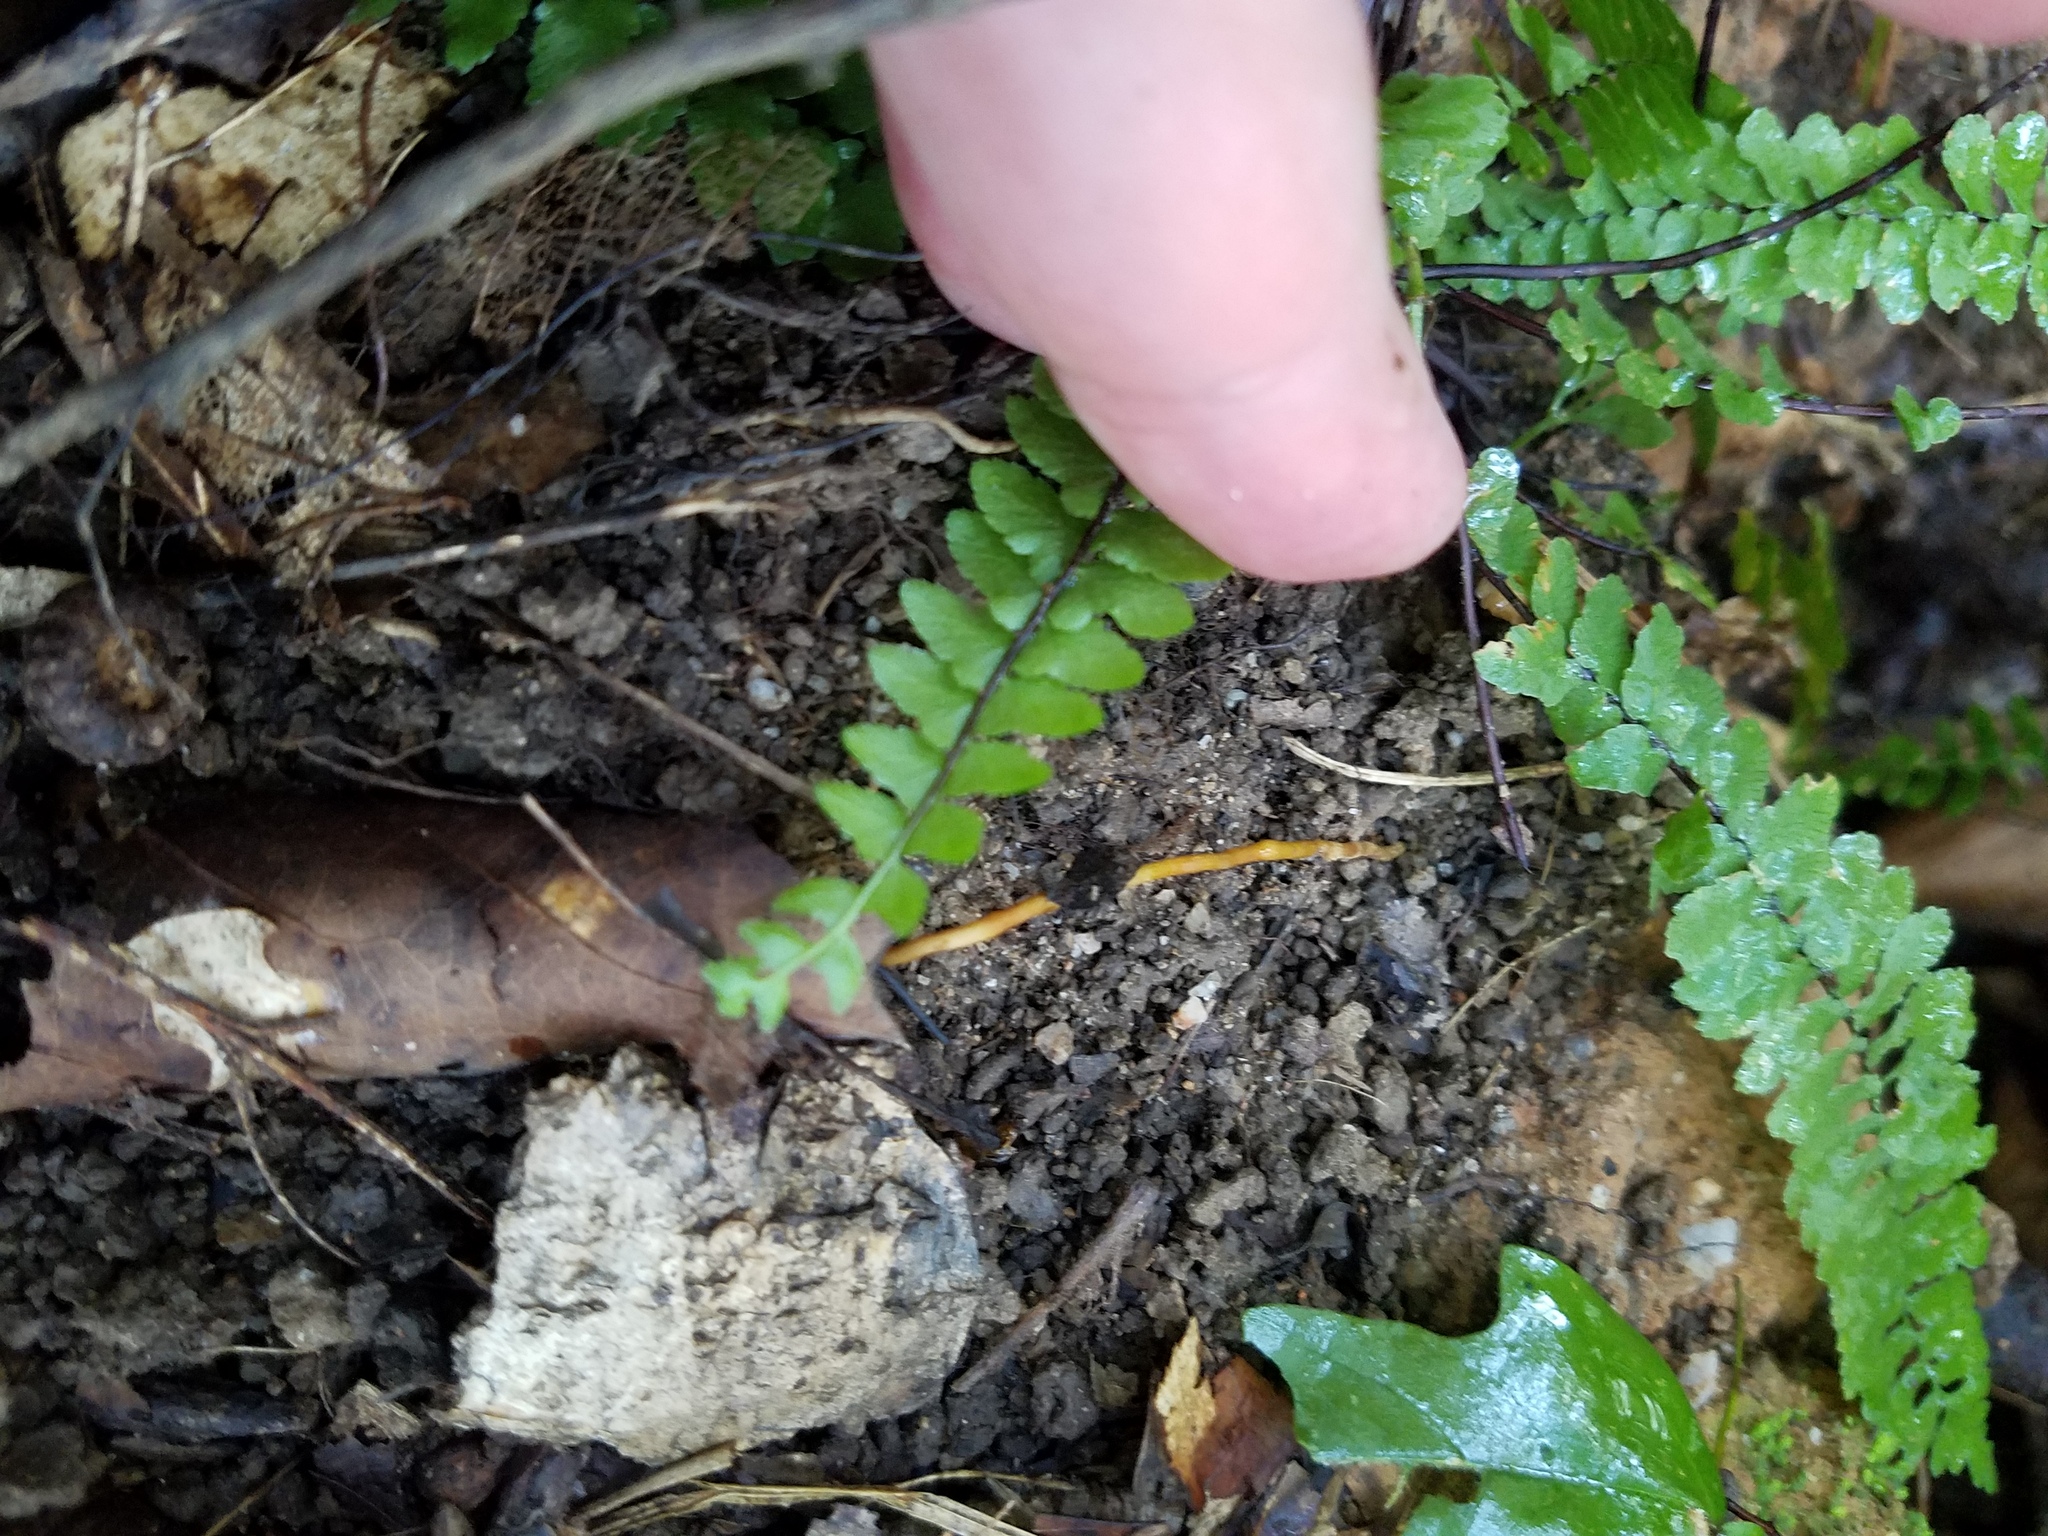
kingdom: Plantae
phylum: Tracheophyta
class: Polypodiopsida
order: Polypodiales
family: Aspleniaceae
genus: Asplenium
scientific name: Asplenium platyneuron
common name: Ebony spleenwort
